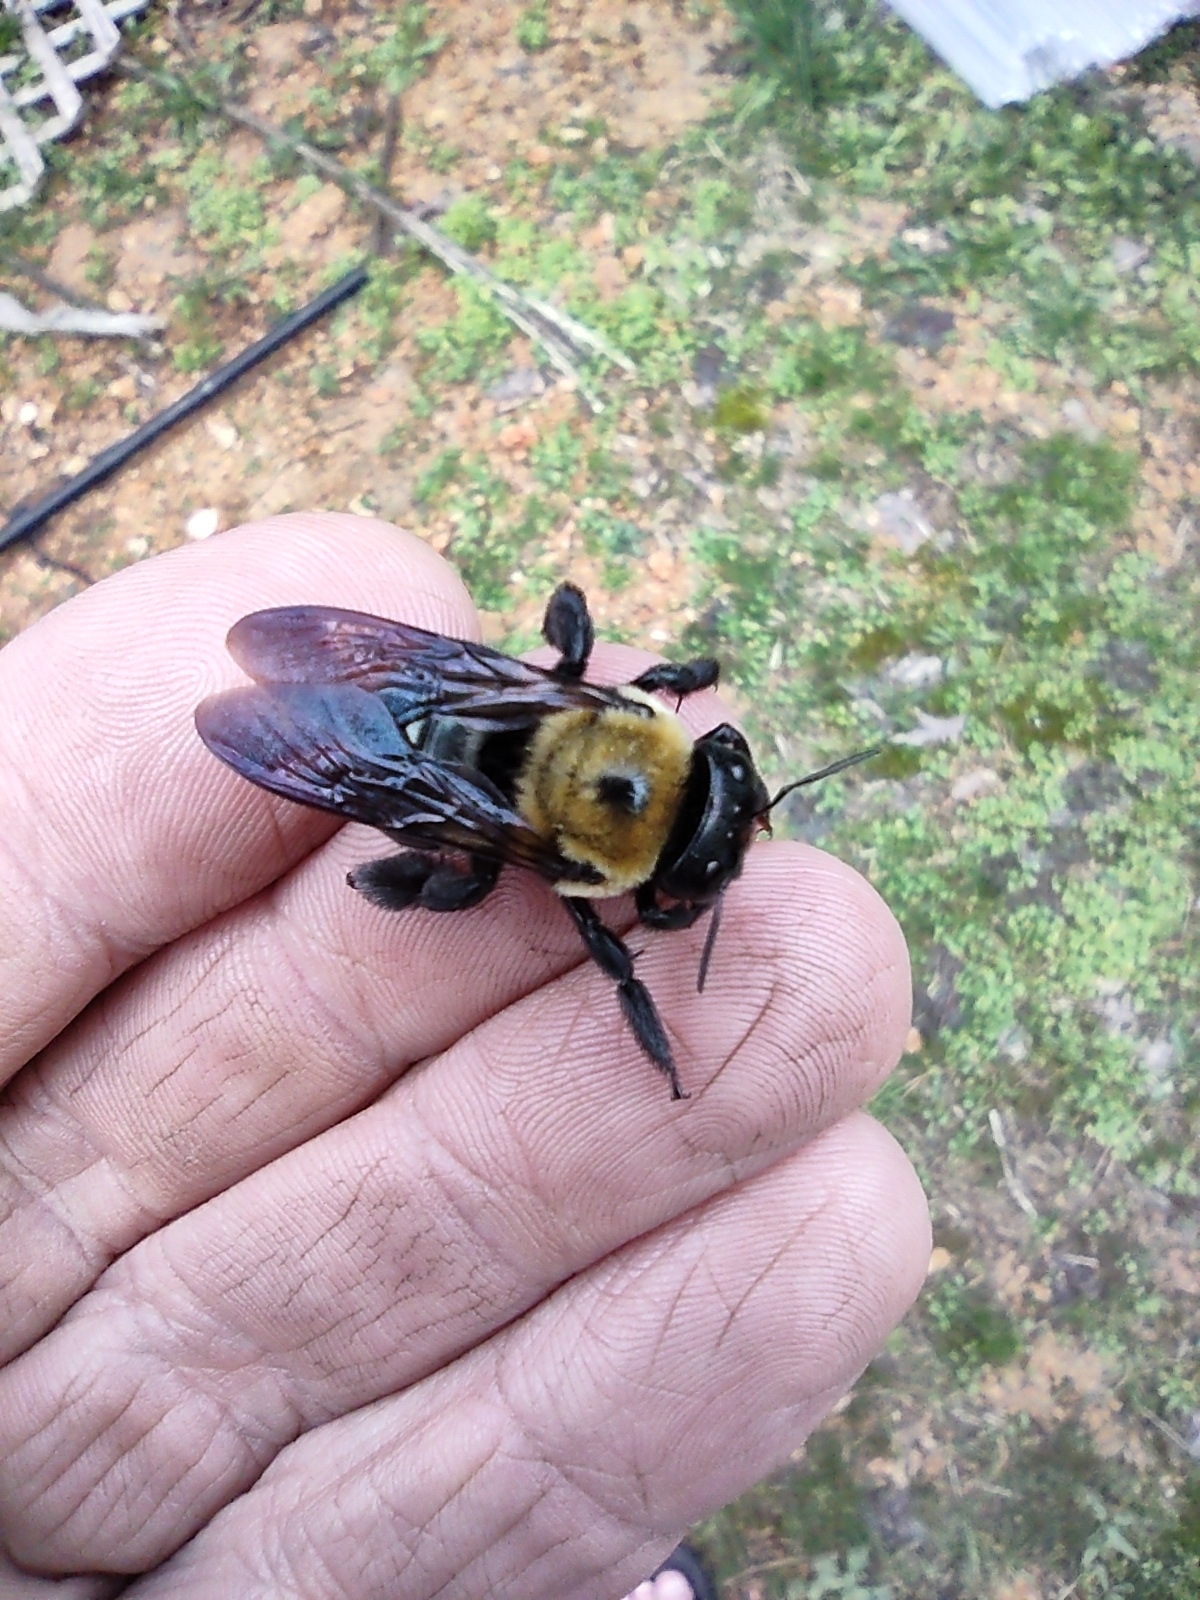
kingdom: Animalia
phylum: Arthropoda
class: Insecta
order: Hymenoptera
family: Apidae
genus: Xylocopa
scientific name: Xylocopa virginica
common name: Carpenter bee
